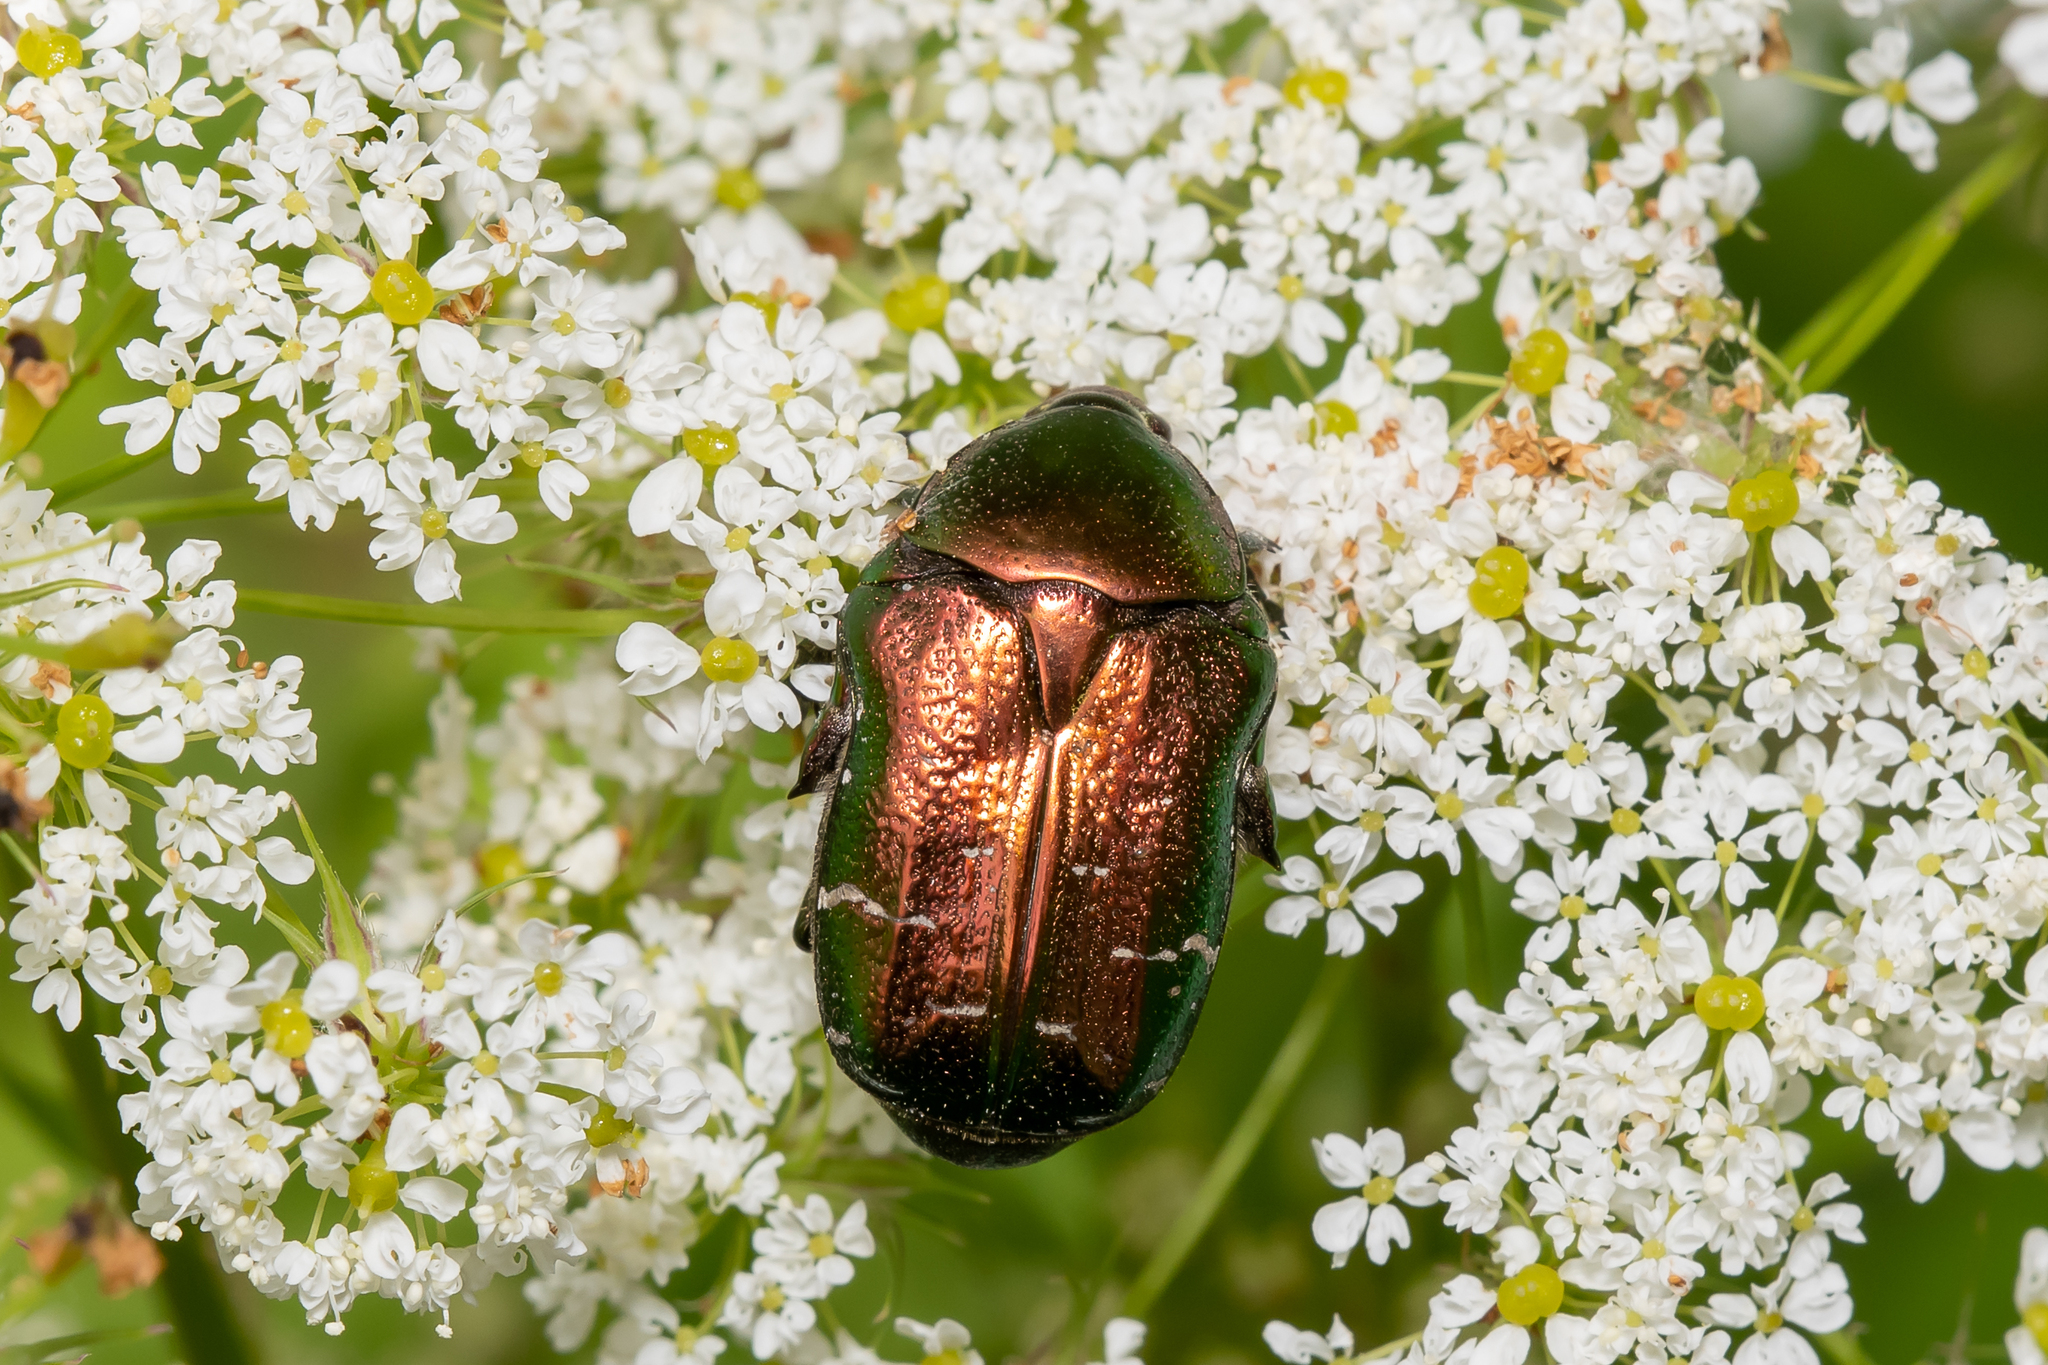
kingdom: Animalia
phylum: Arthropoda
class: Insecta
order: Coleoptera
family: Scarabaeidae
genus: Cetonia
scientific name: Cetonia aurata
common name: Rose chafer
